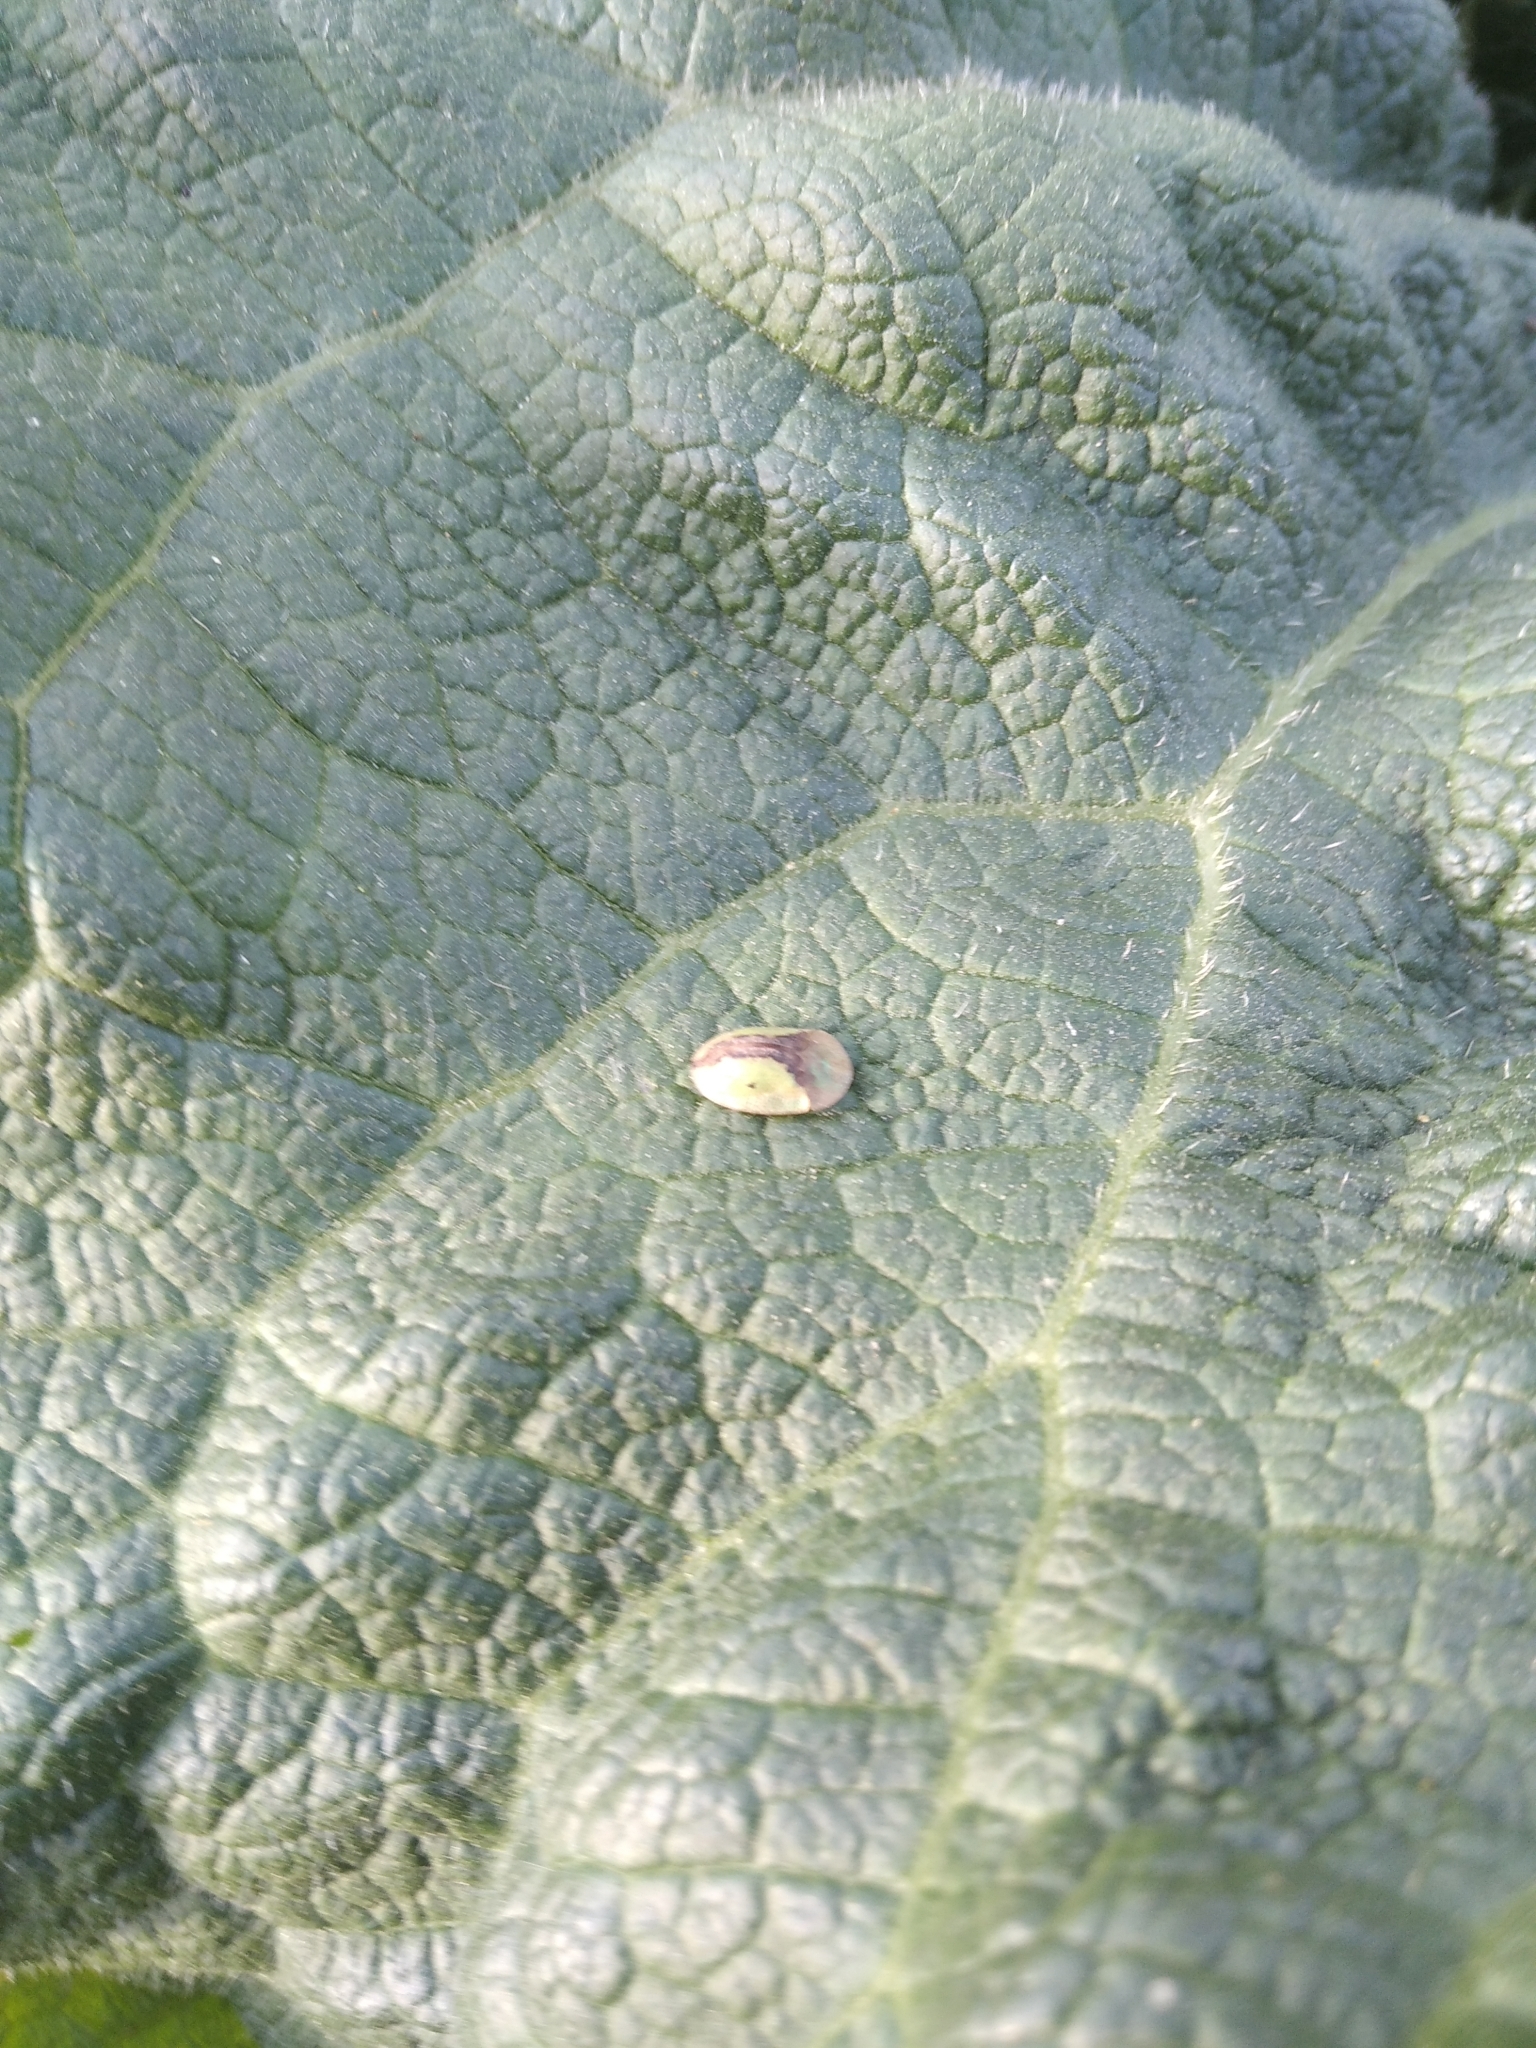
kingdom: Animalia
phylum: Arthropoda
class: Insecta
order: Coleoptera
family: Chrysomelidae
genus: Cassida
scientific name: Cassida
